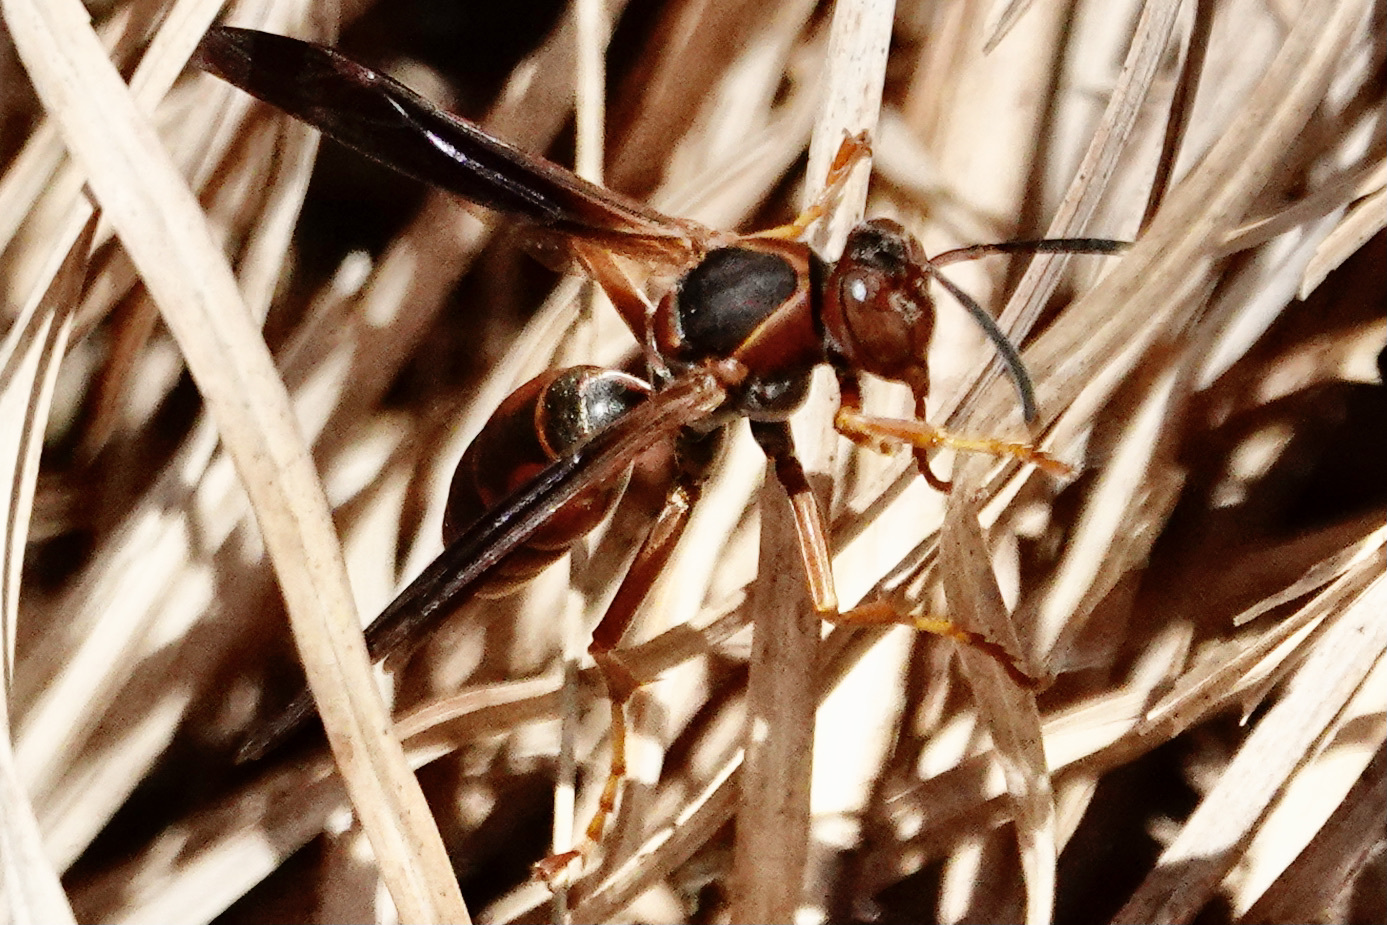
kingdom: Animalia
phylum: Arthropoda
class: Insecta
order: Hymenoptera
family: Eumenidae
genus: Polistes
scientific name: Polistes fuscatus
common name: Dark paper wasp
